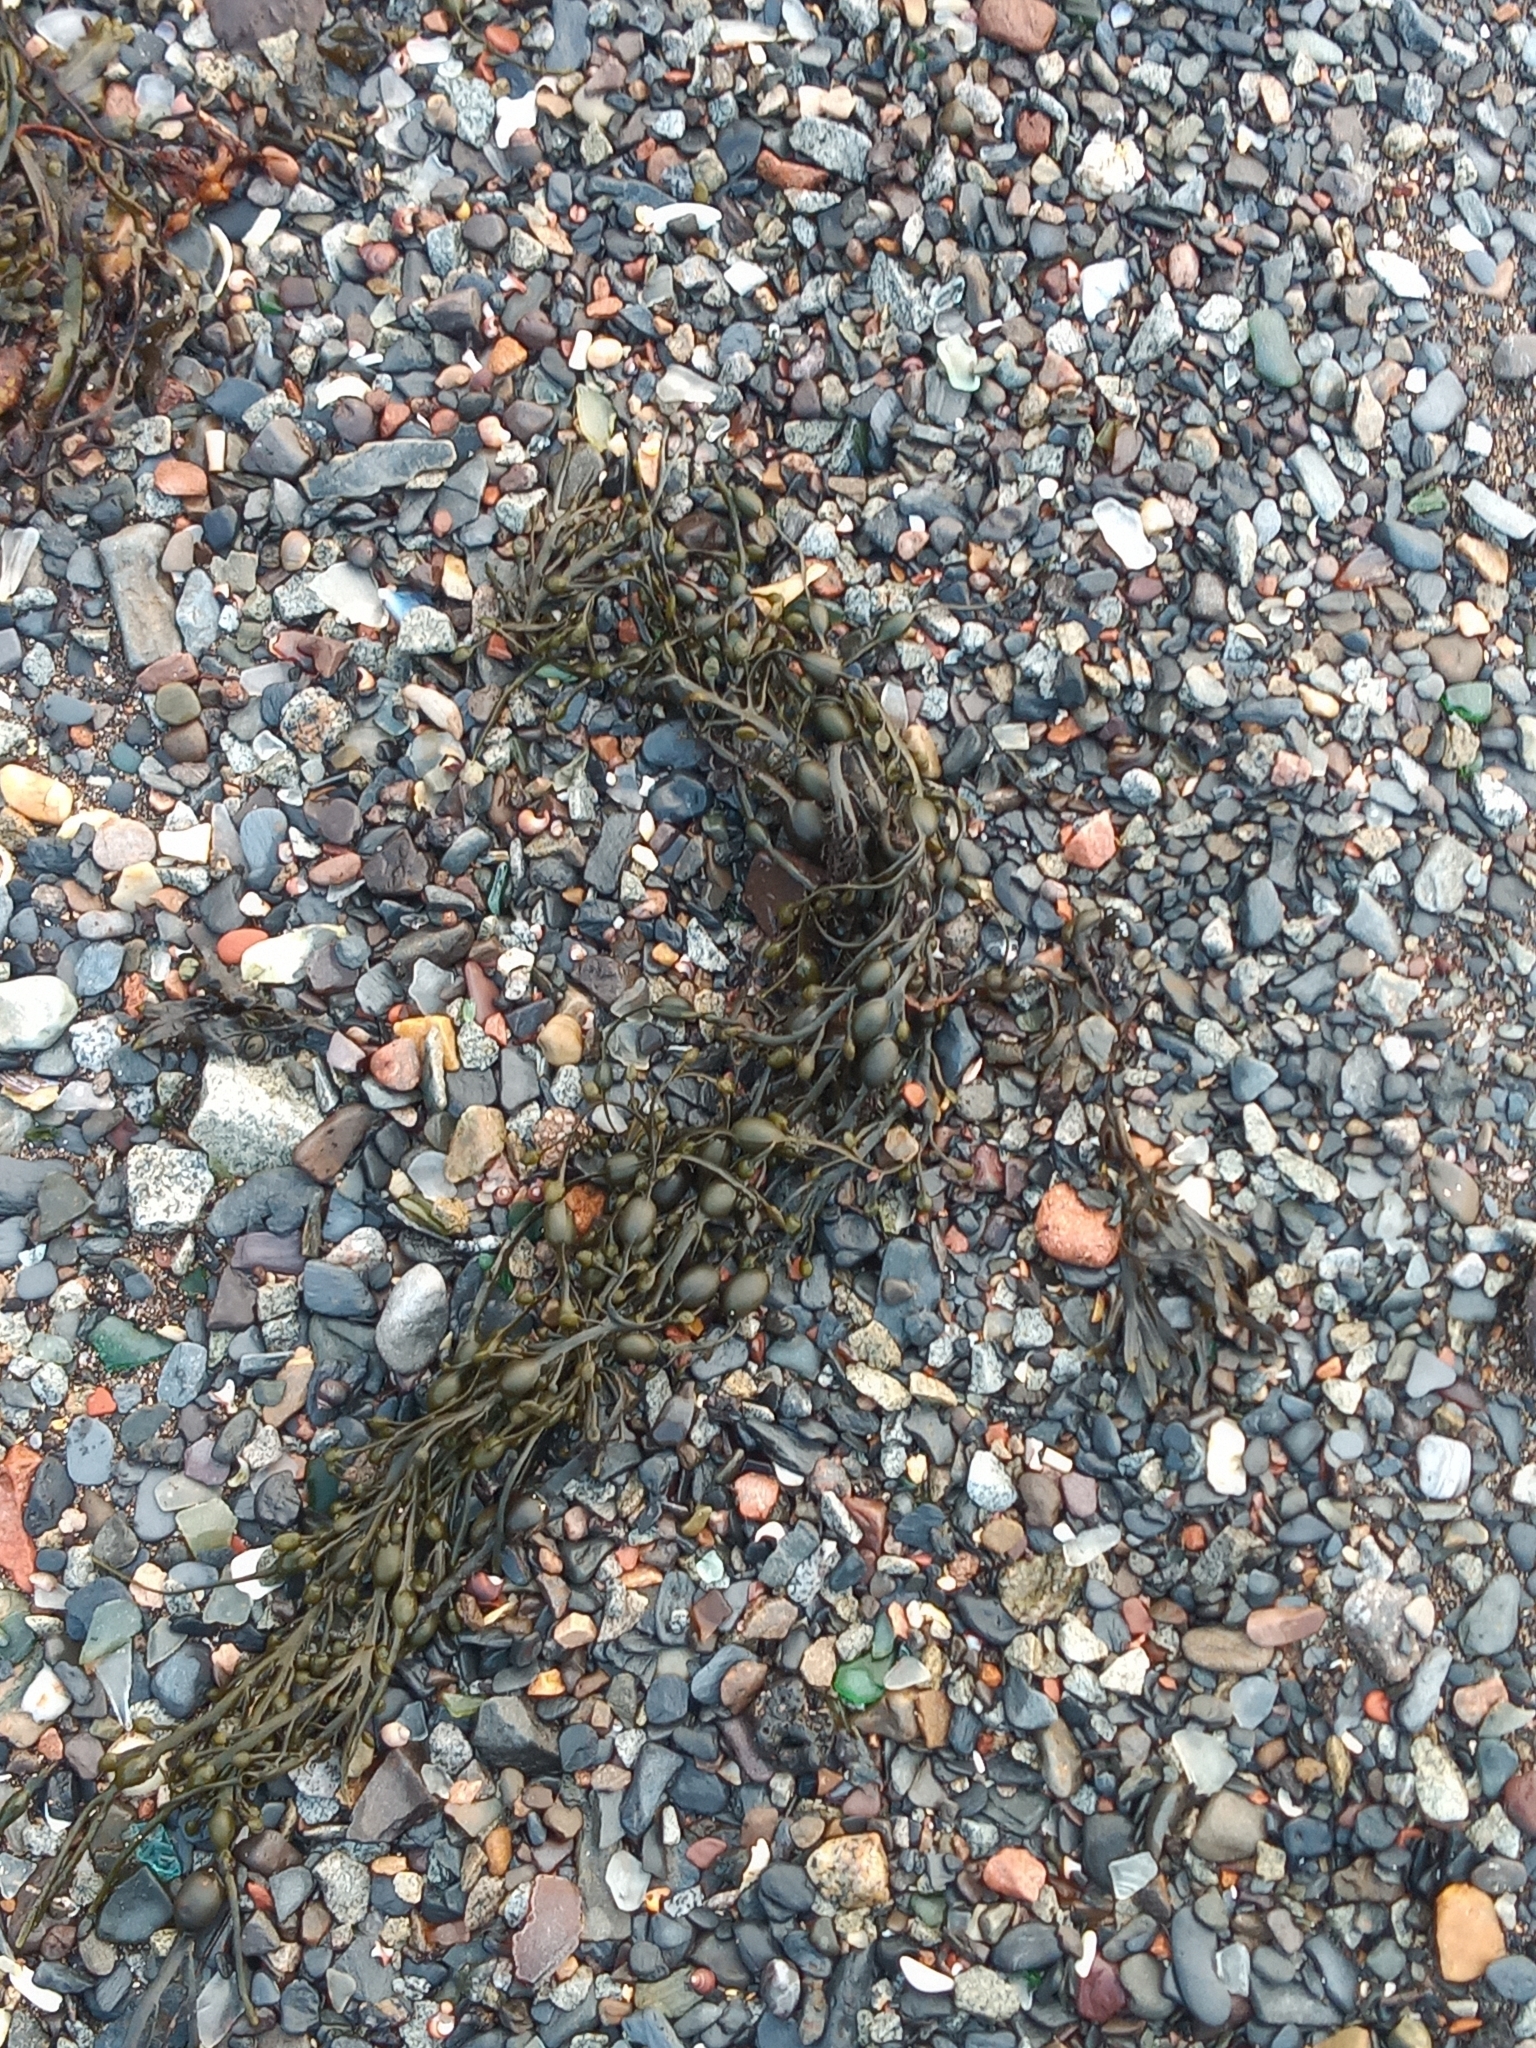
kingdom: Chromista
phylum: Ochrophyta
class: Phaeophyceae
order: Fucales
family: Fucaceae
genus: Ascophyllum
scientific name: Ascophyllum nodosum
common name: Knotted wrack
